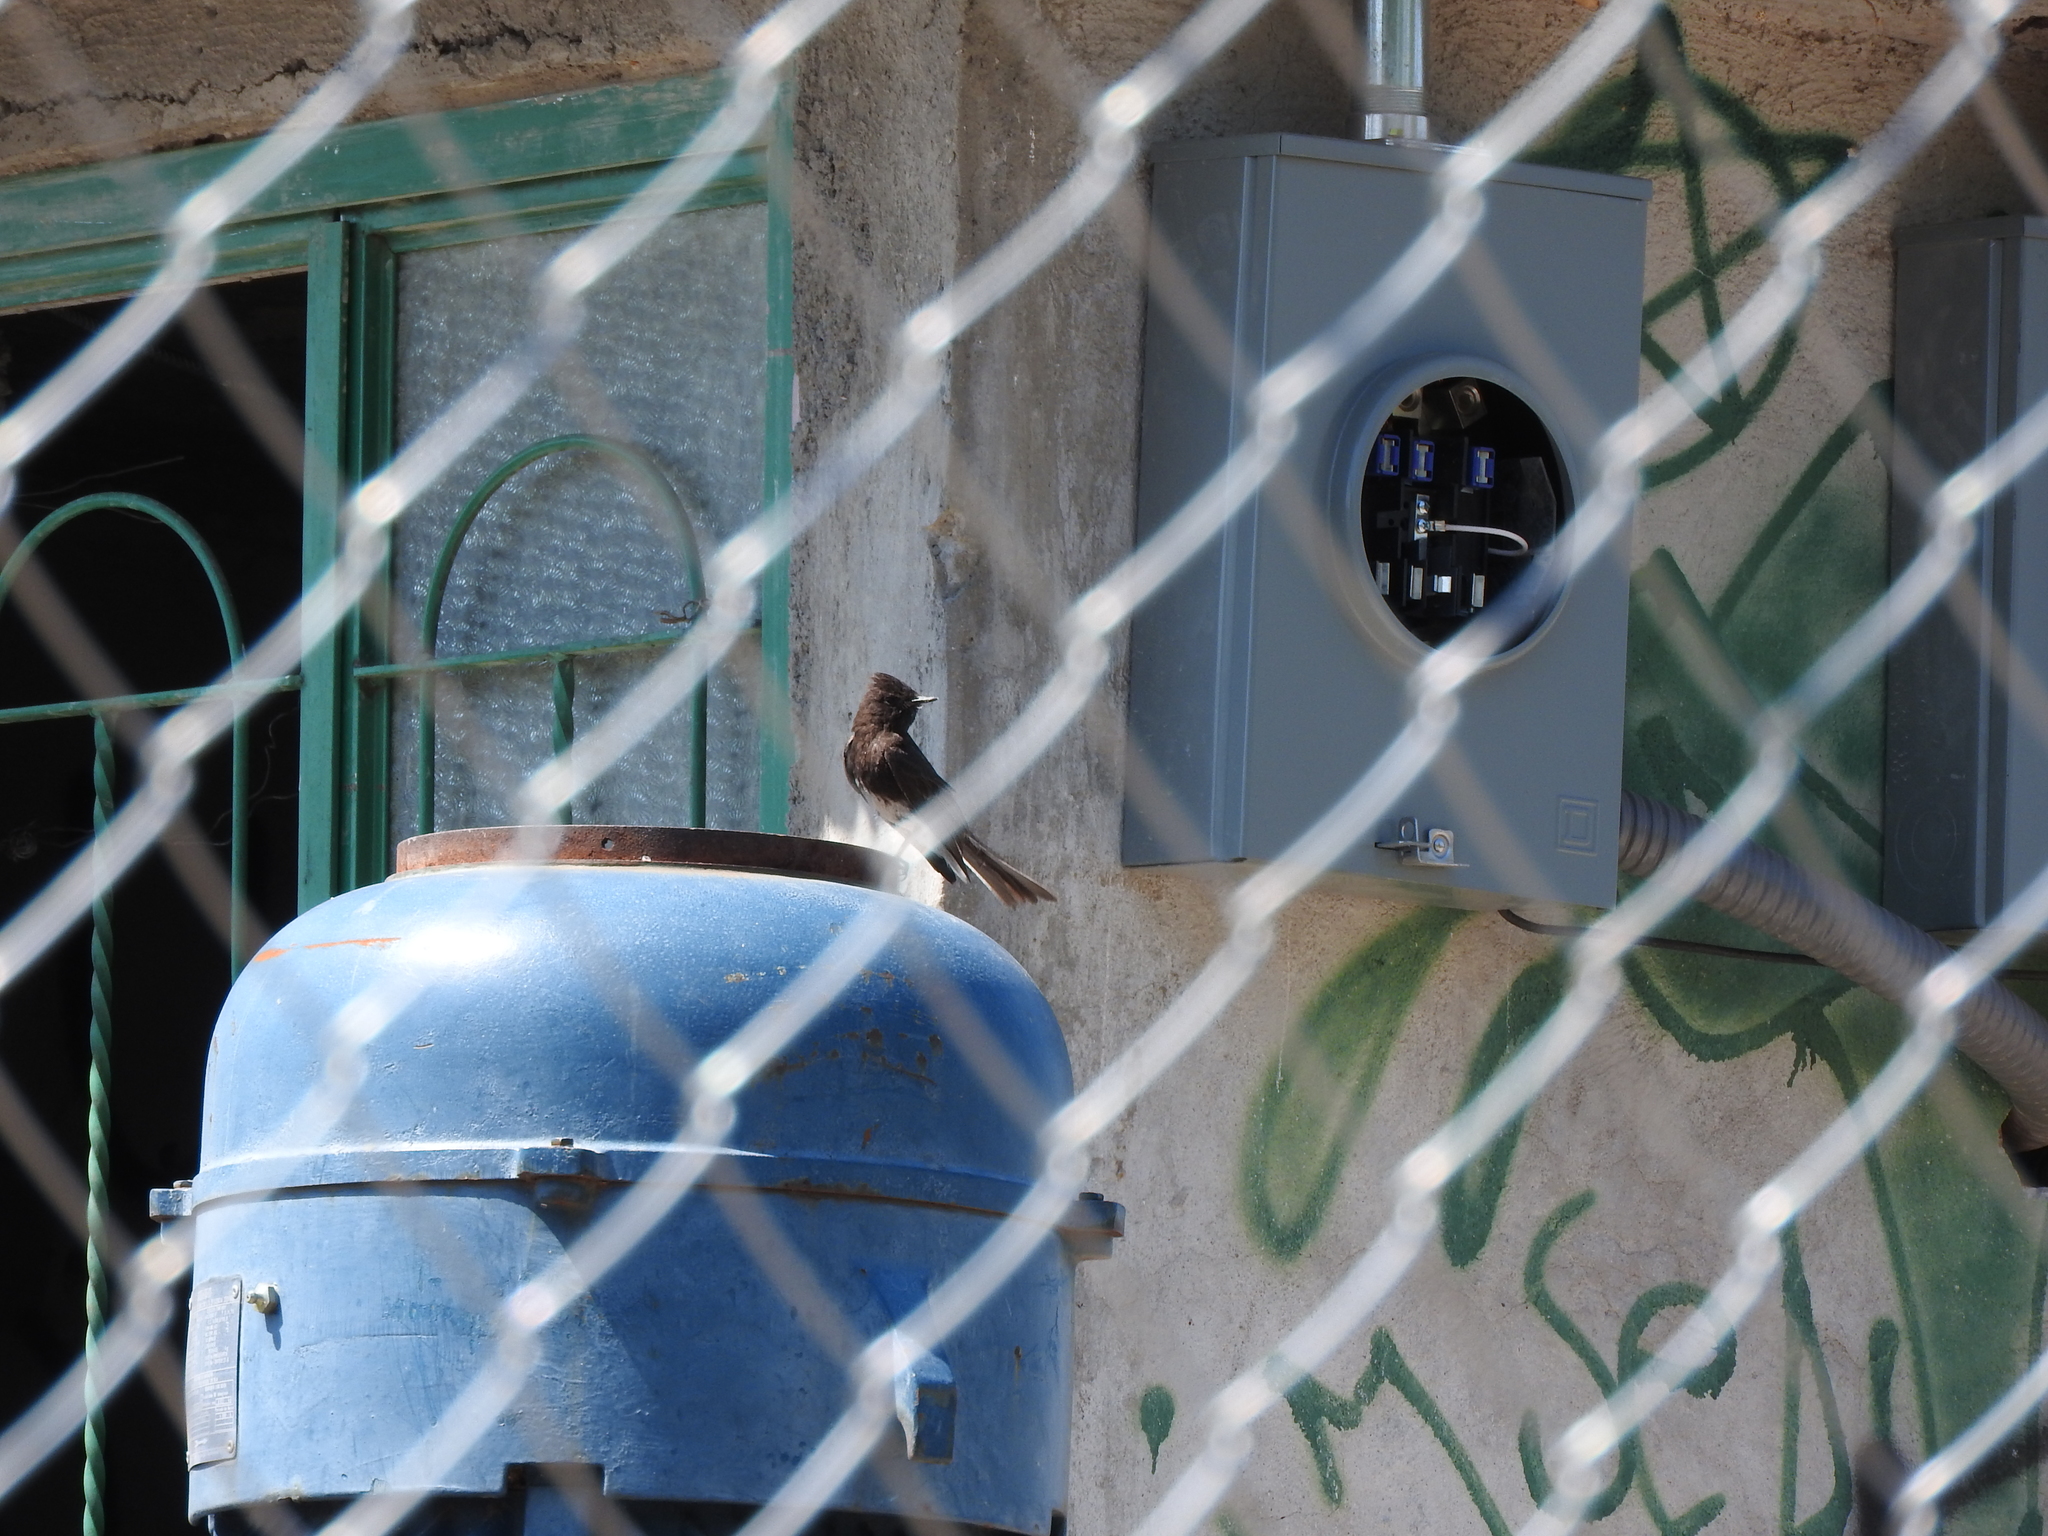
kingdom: Animalia
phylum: Chordata
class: Aves
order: Passeriformes
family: Tyrannidae
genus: Sayornis
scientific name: Sayornis nigricans
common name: Black phoebe
